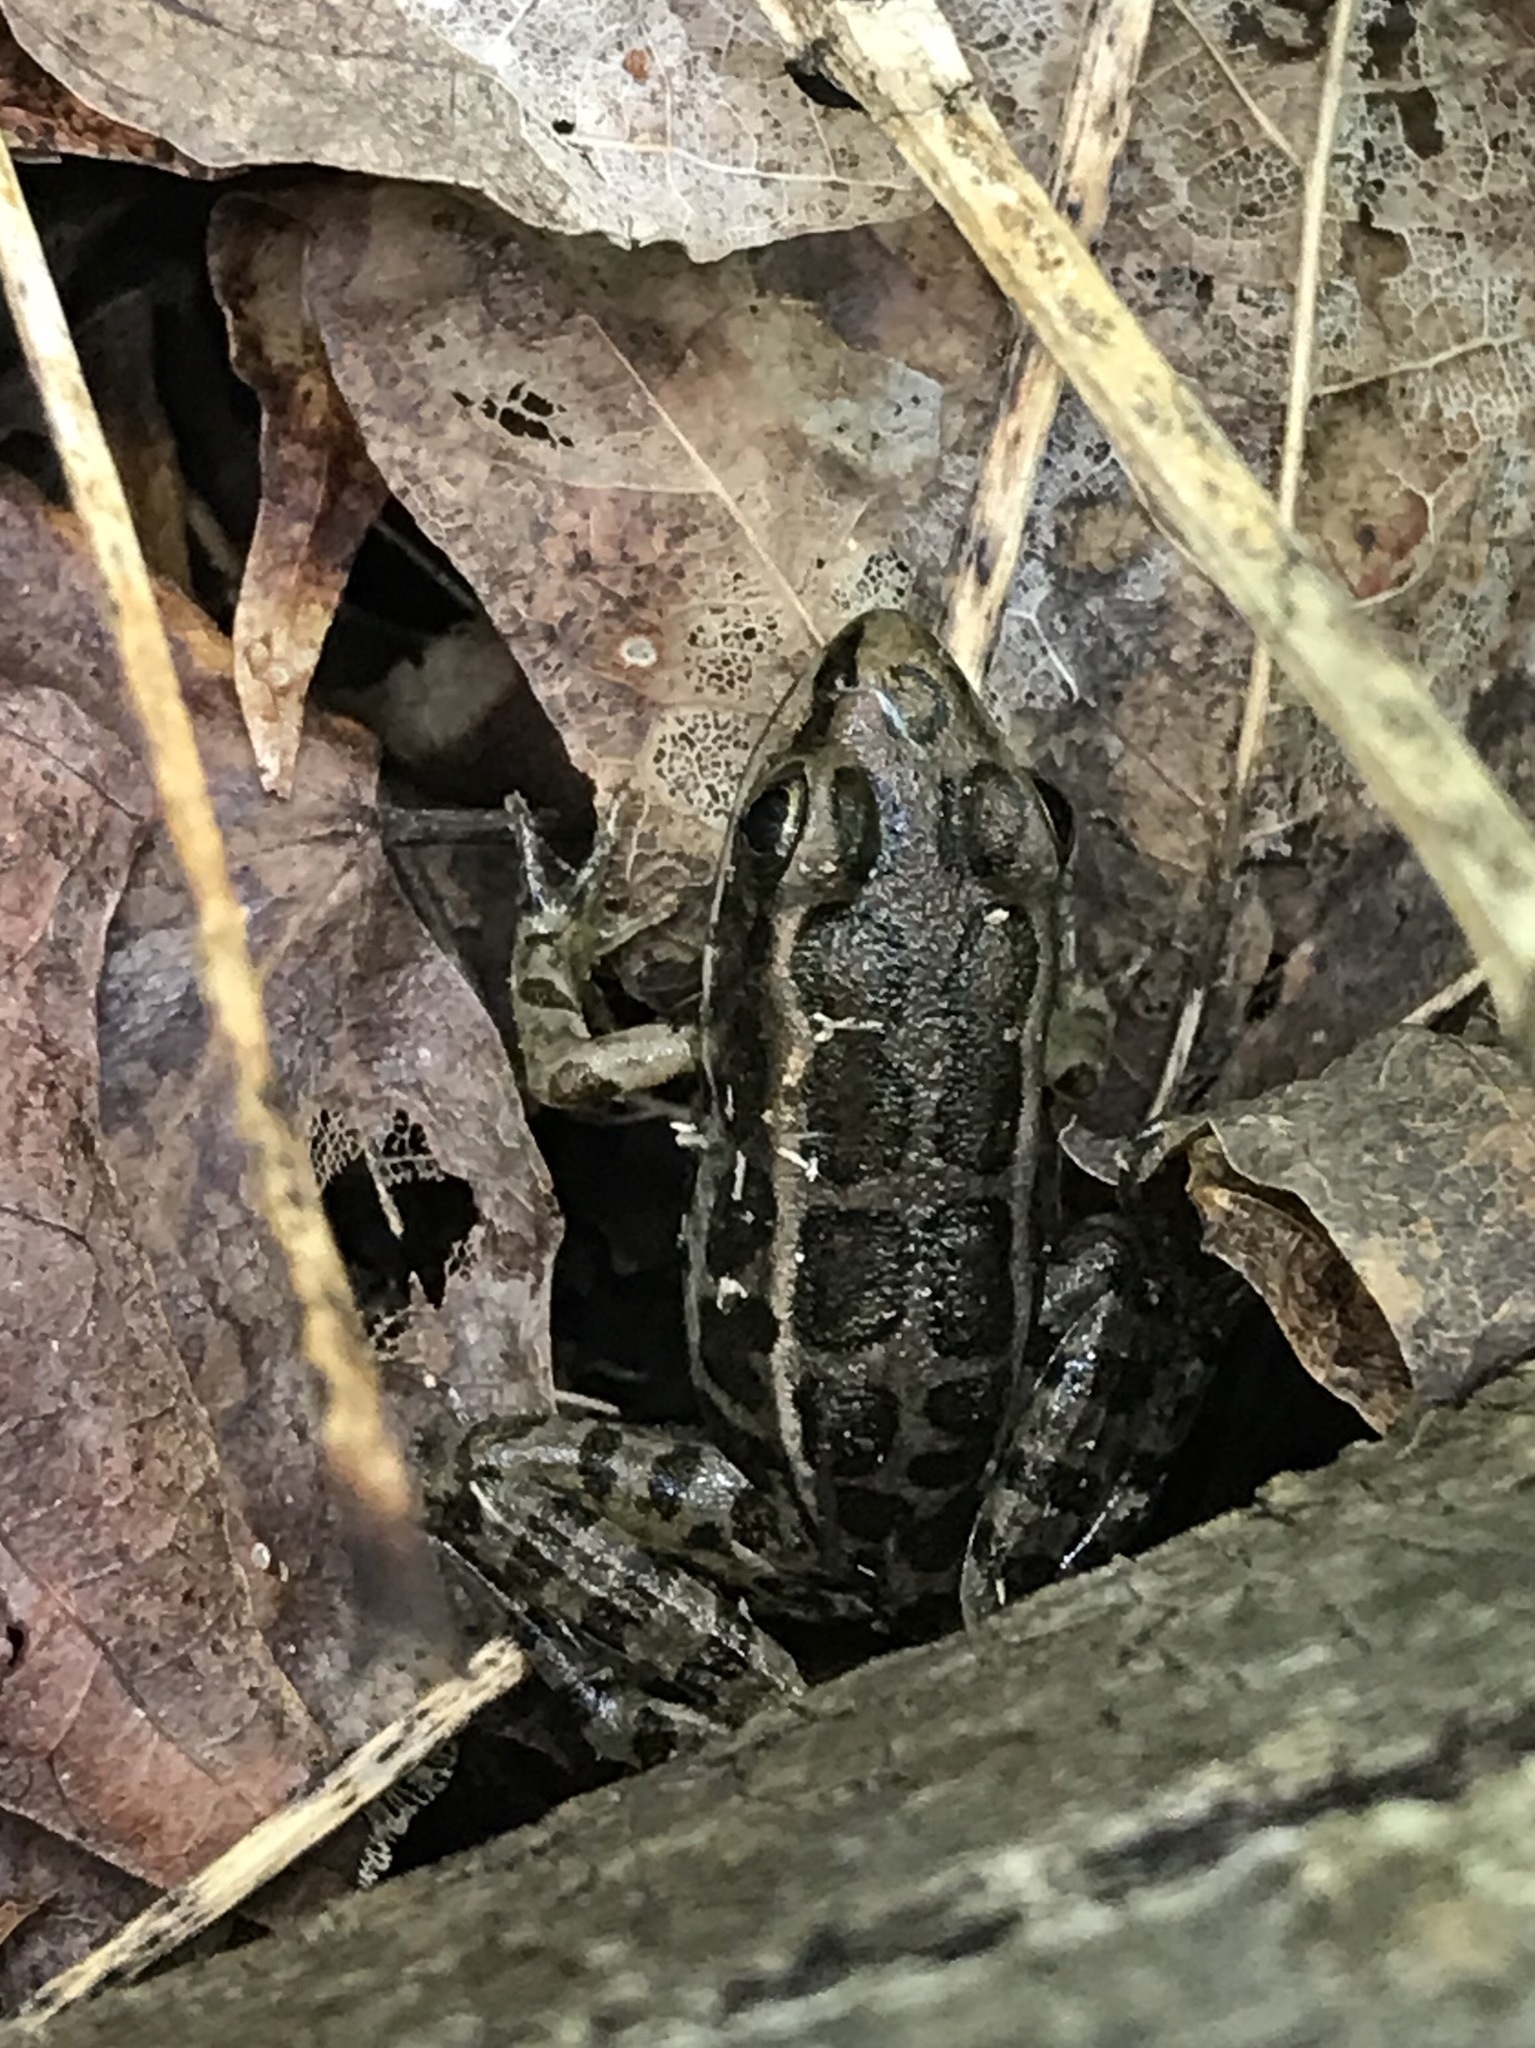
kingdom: Animalia
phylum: Chordata
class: Amphibia
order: Anura
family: Ranidae
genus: Lithobates
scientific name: Lithobates palustris
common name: Pickerel frog
